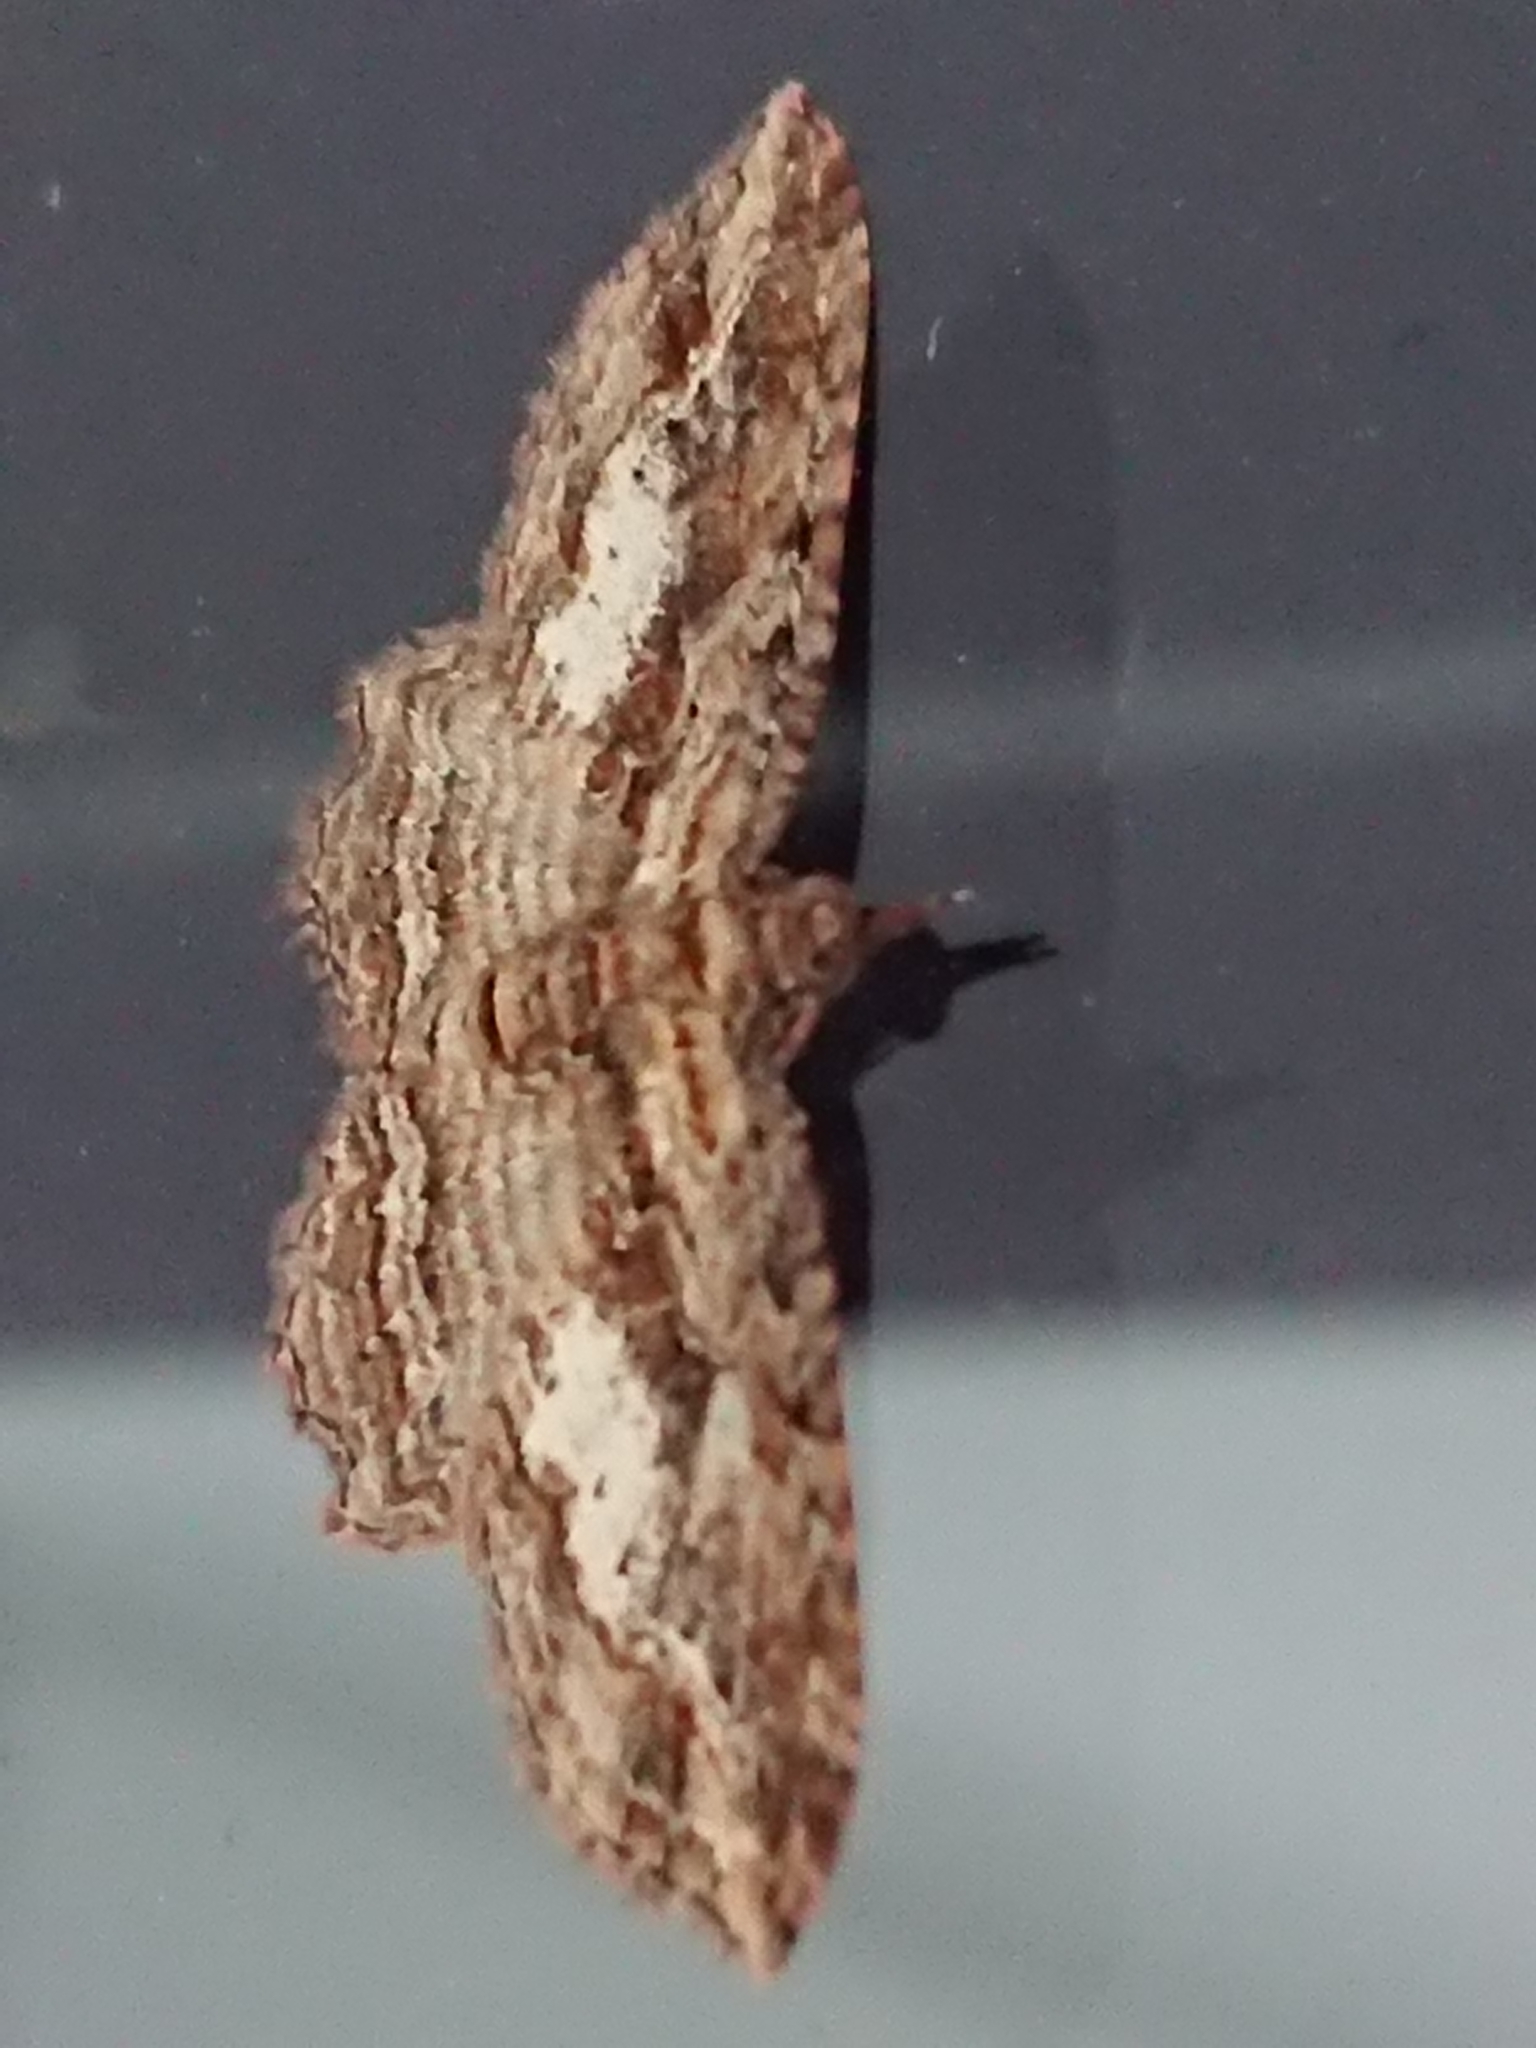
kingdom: Animalia
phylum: Arthropoda
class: Insecta
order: Lepidoptera
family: Geometridae
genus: Chloroclystis
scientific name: Chloroclystis filata
